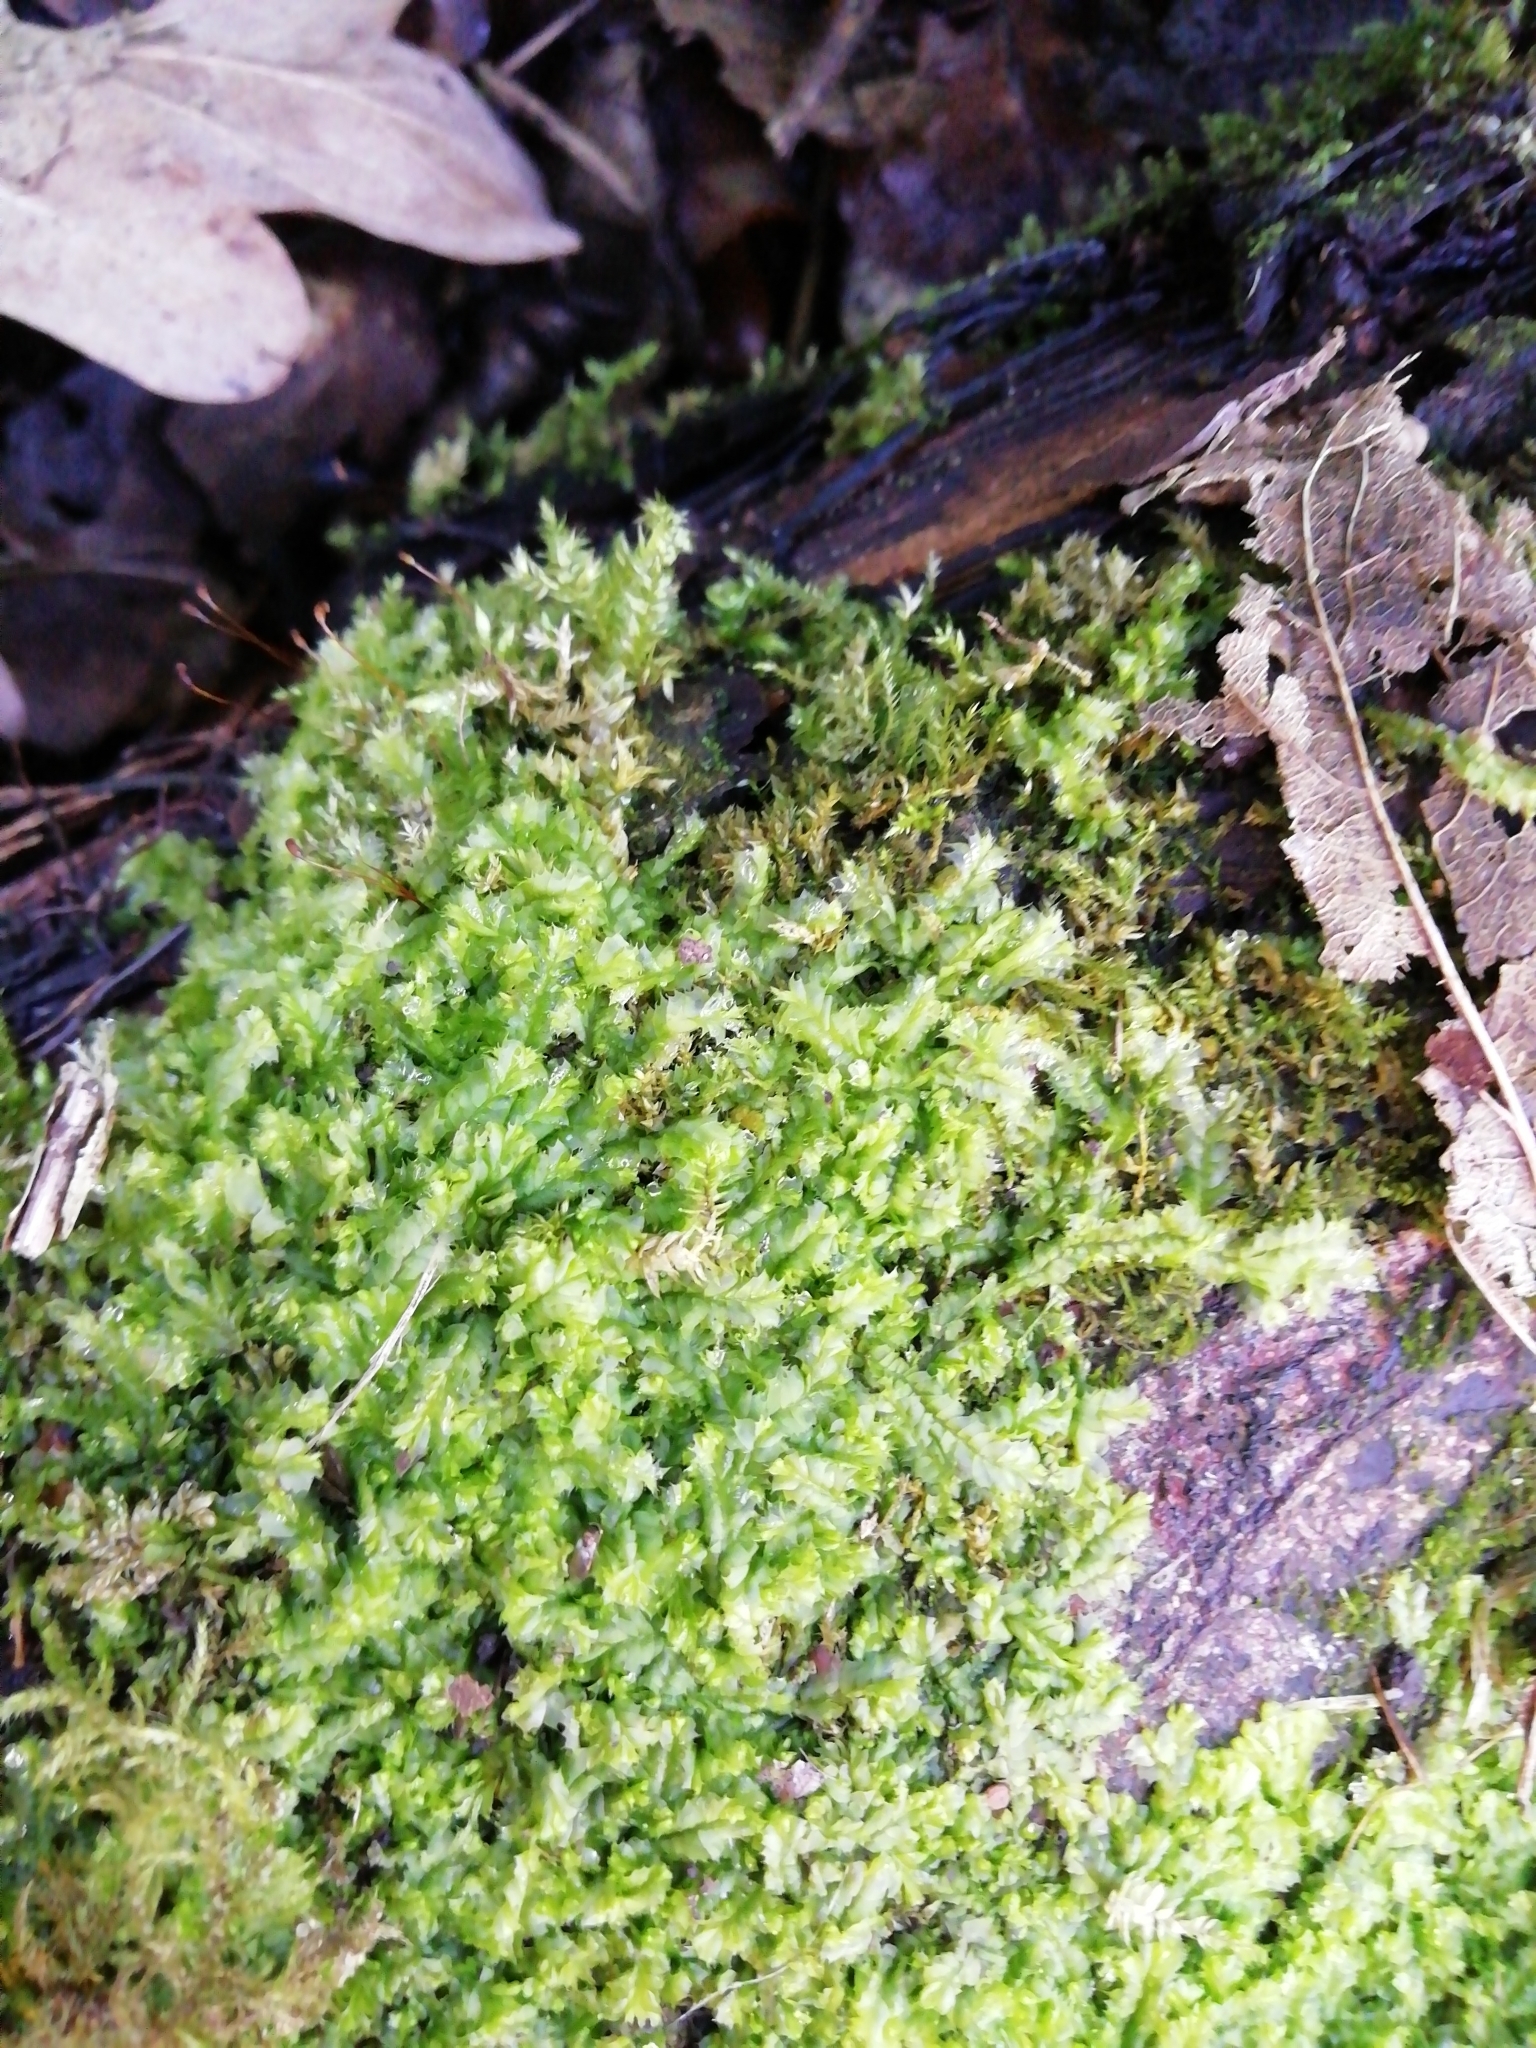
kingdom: Plantae
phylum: Marchantiophyta
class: Jungermanniopsida
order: Jungermanniales
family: Lophocoleaceae
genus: Lophocolea
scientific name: Lophocolea bidentata
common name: Bifid crestwort
